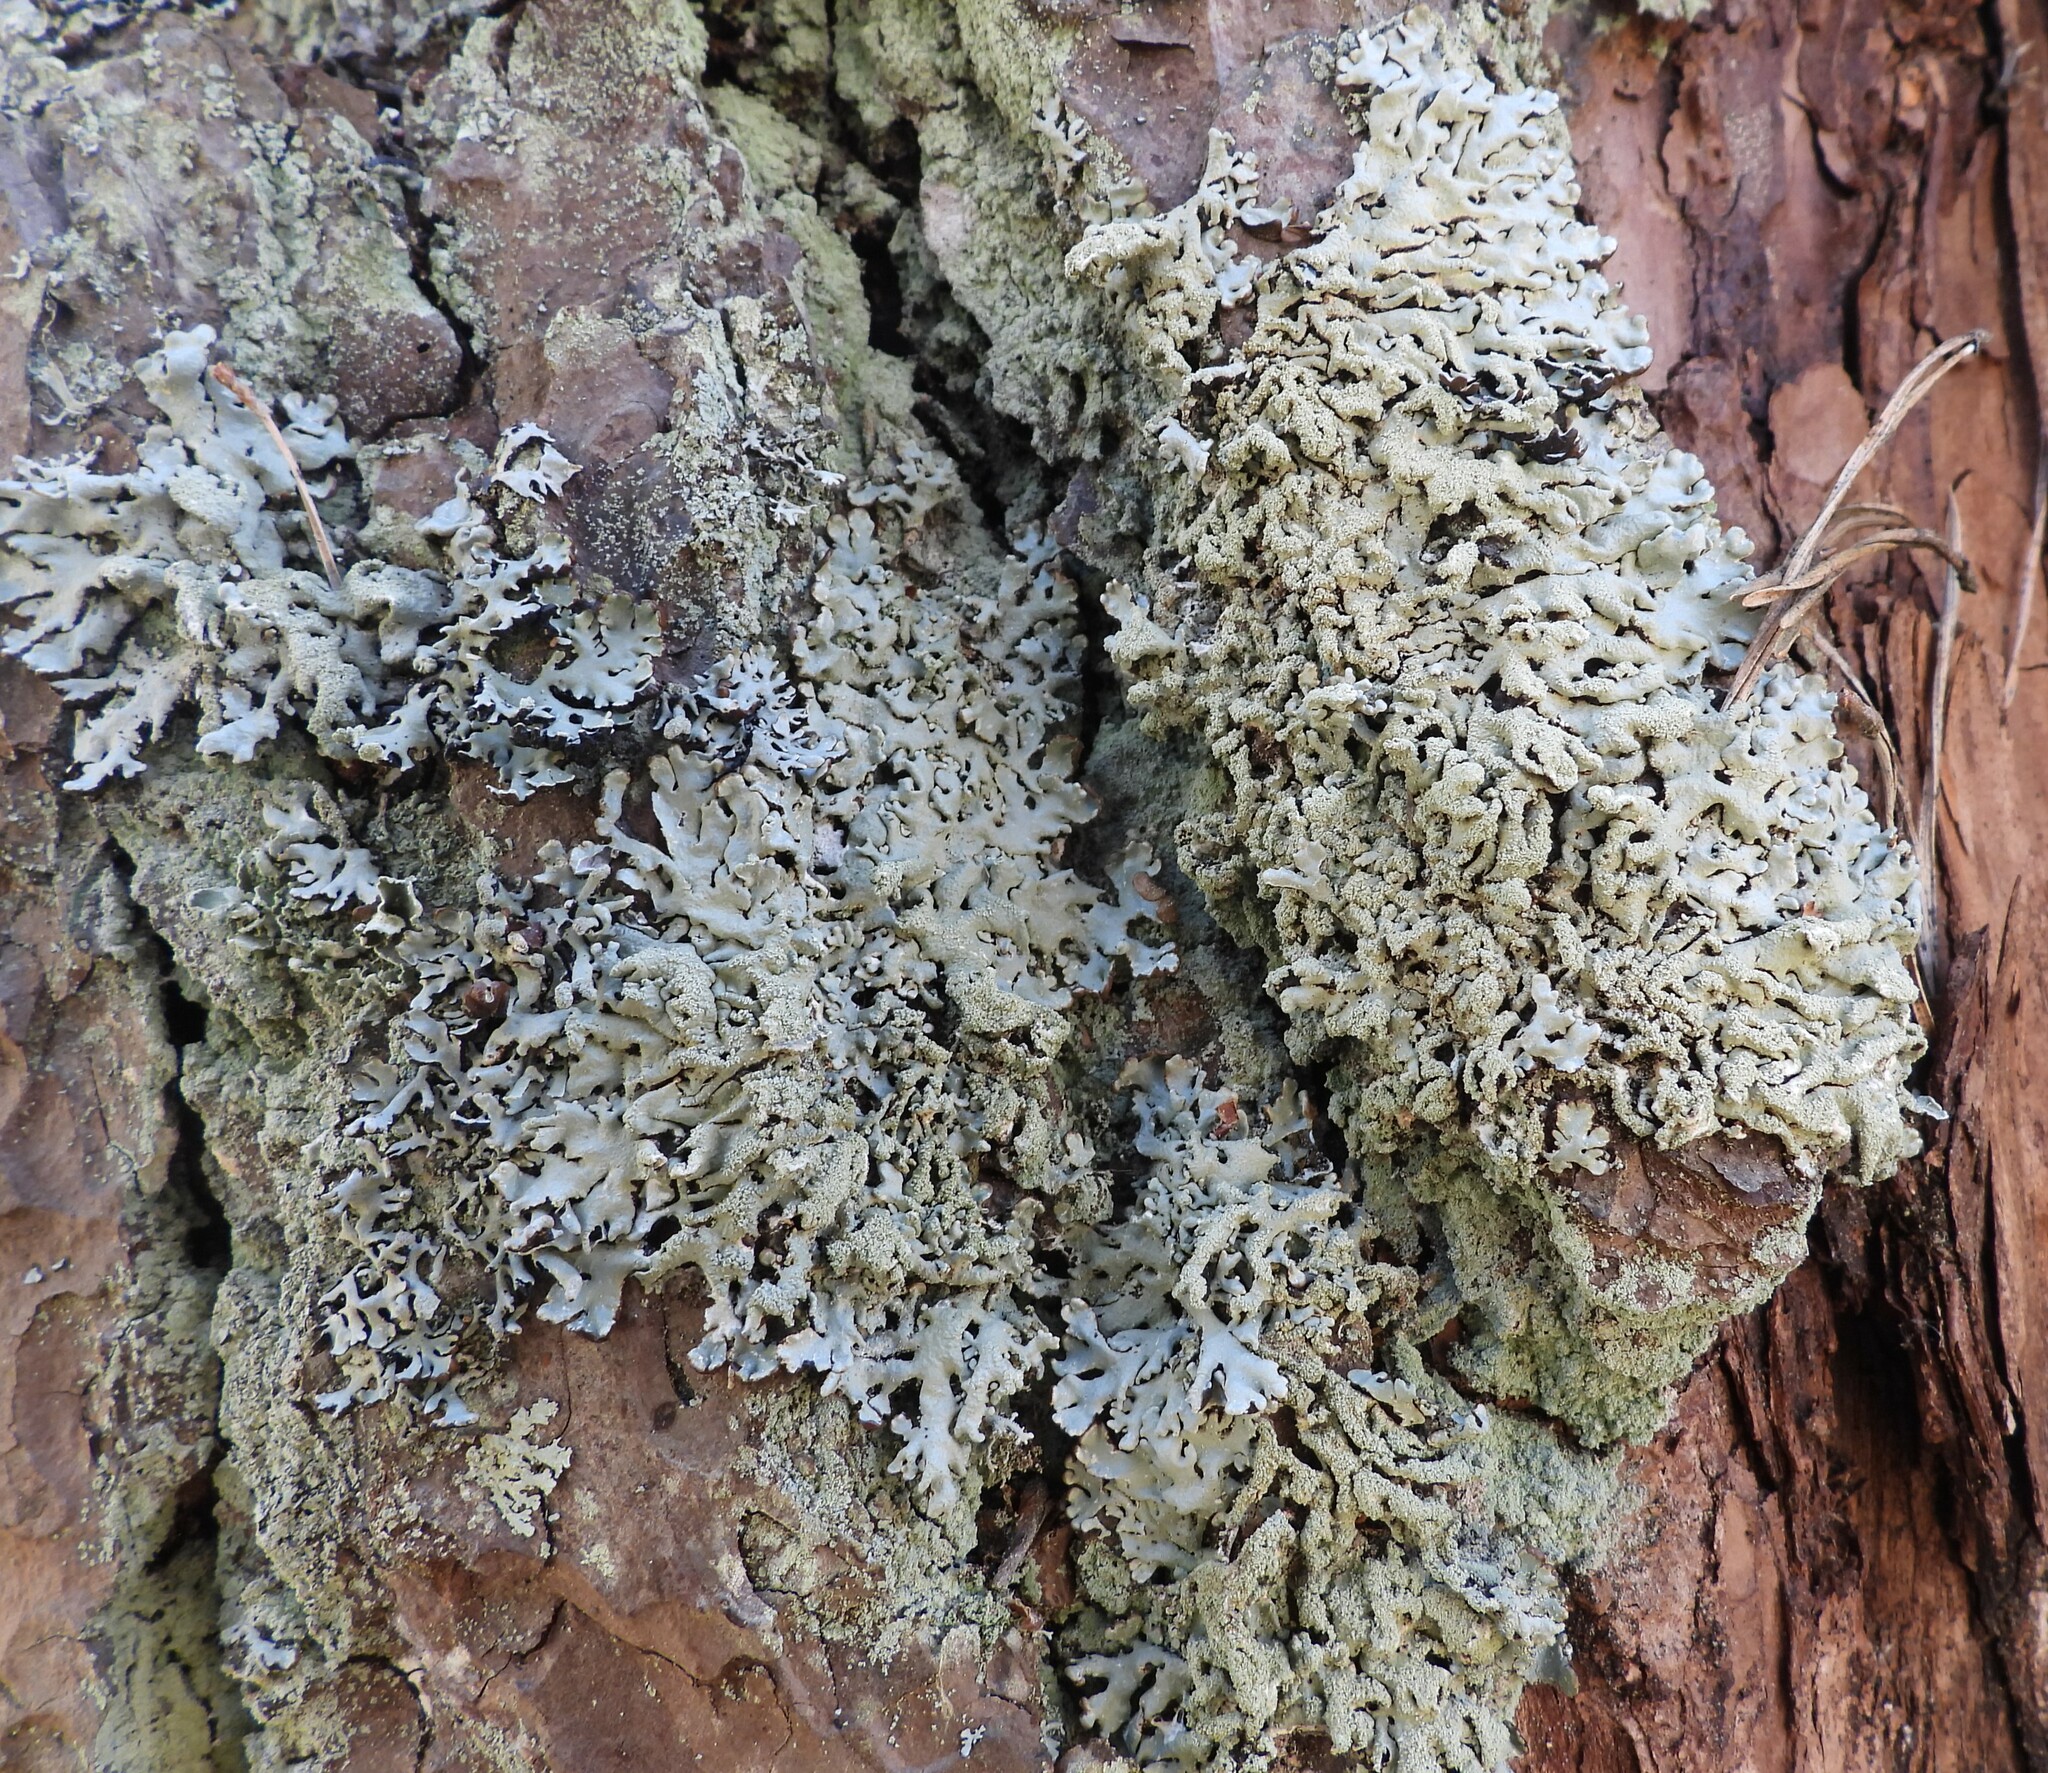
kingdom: Fungi
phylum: Ascomycota
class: Lecanoromycetes
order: Lecanorales
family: Parmeliaceae
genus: Hypogymnia
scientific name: Hypogymnia farinacea
